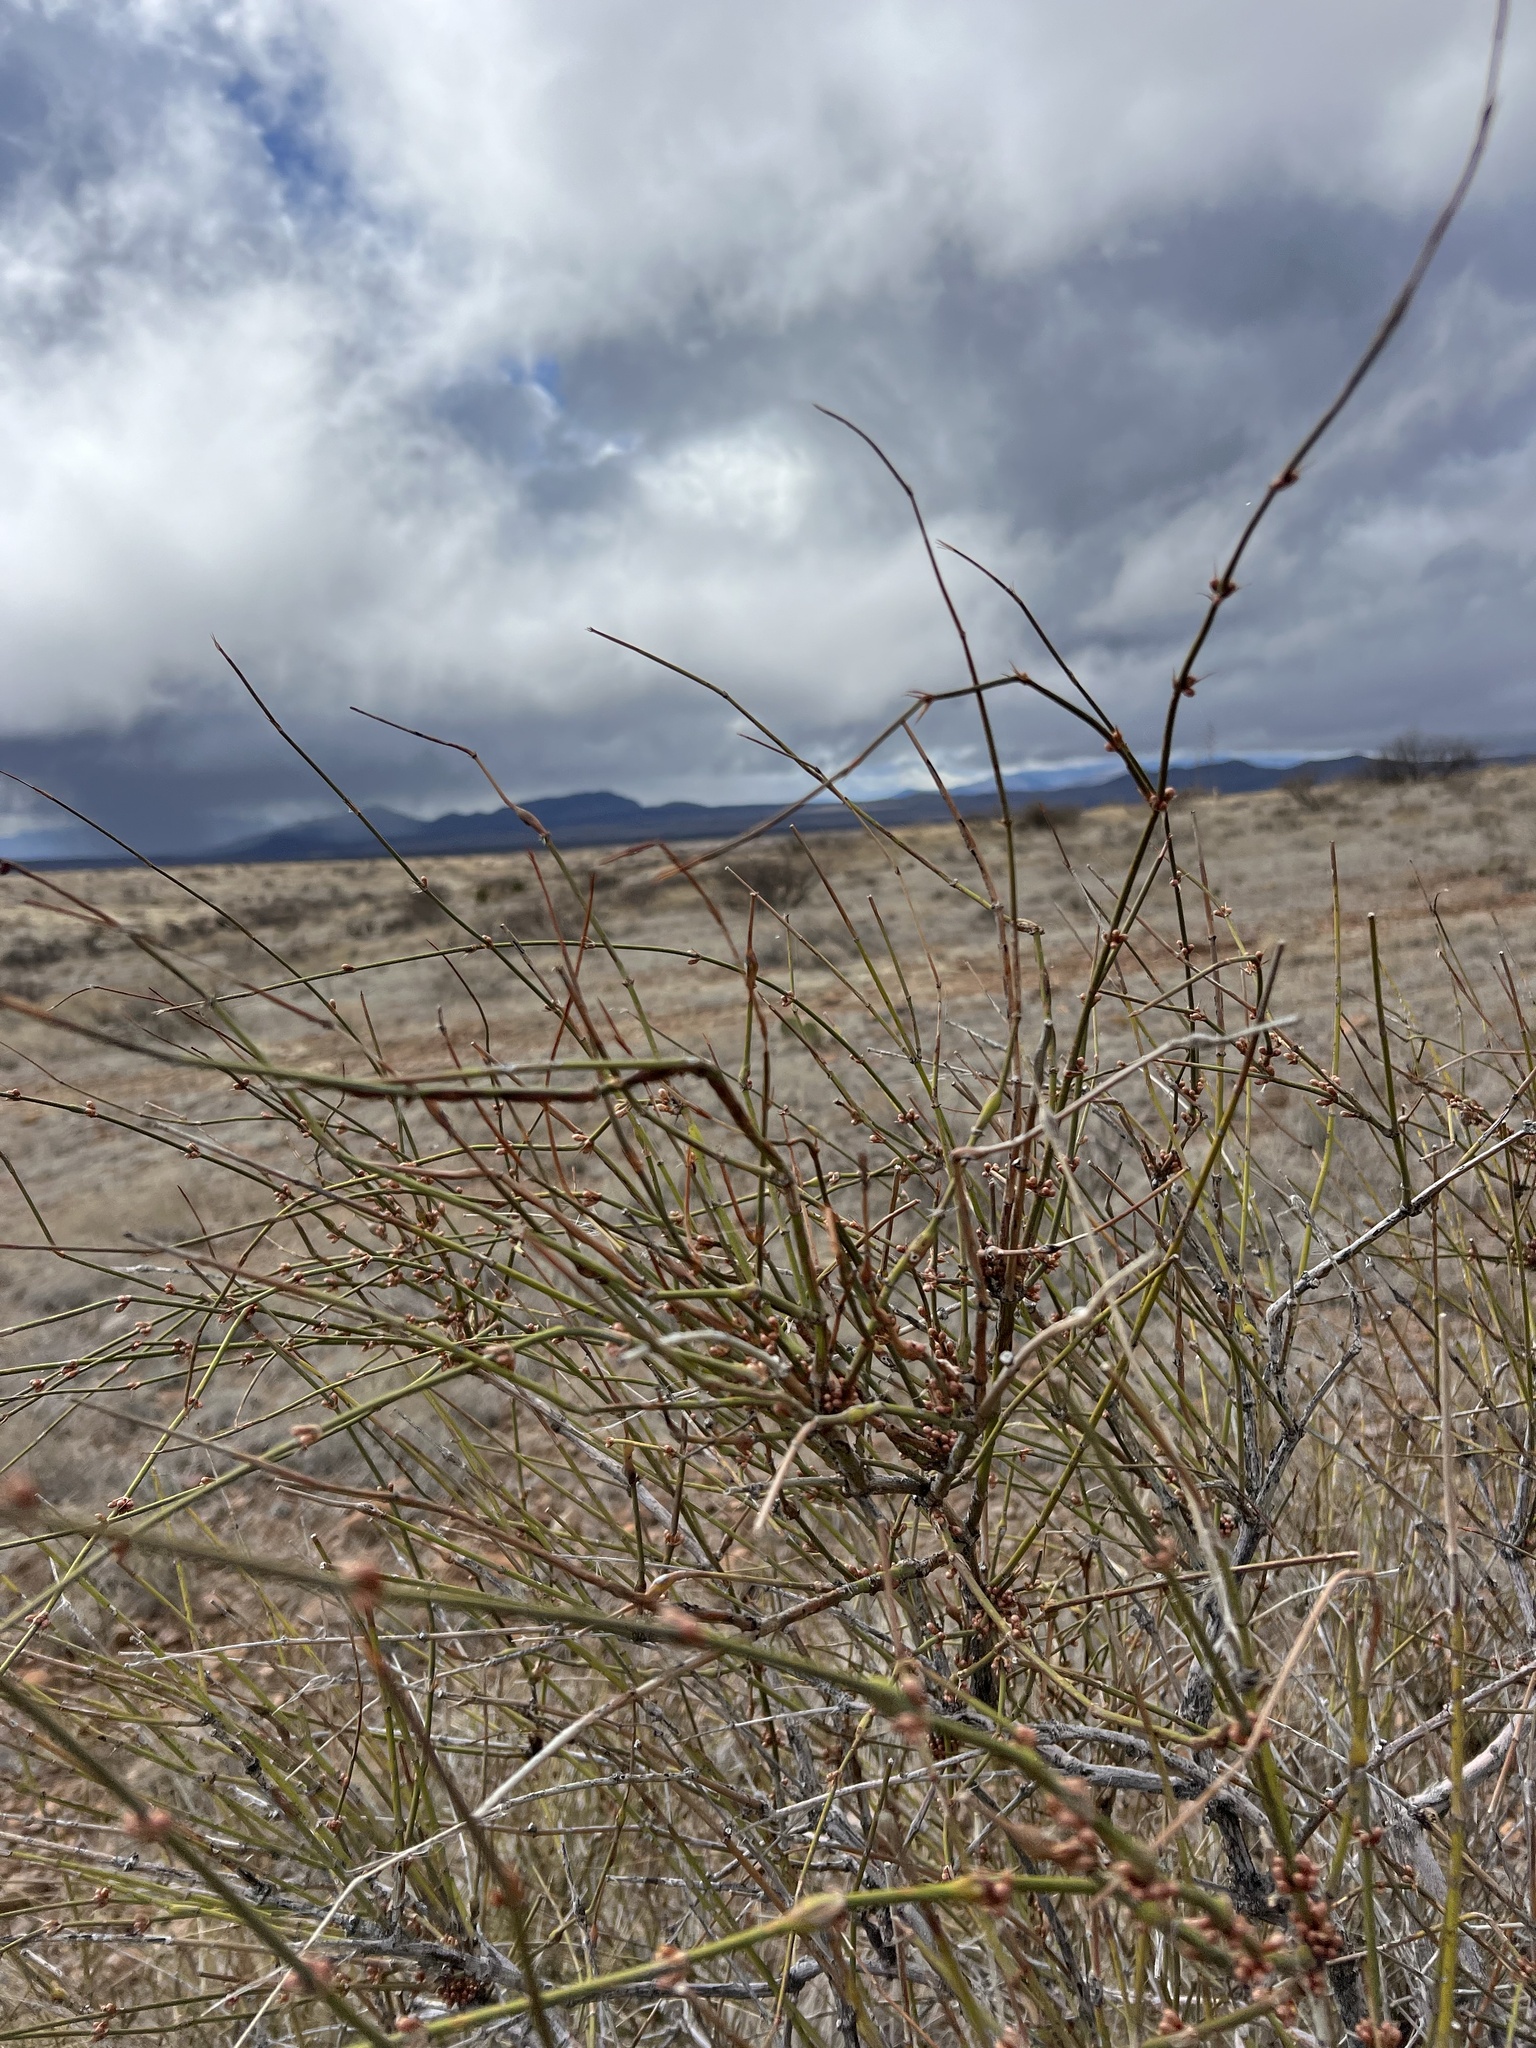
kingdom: Plantae
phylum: Tracheophyta
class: Gnetopsida
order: Ephedrales
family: Ephedraceae
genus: Ephedra
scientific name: Ephedra trifurca
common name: Mexican-tea
